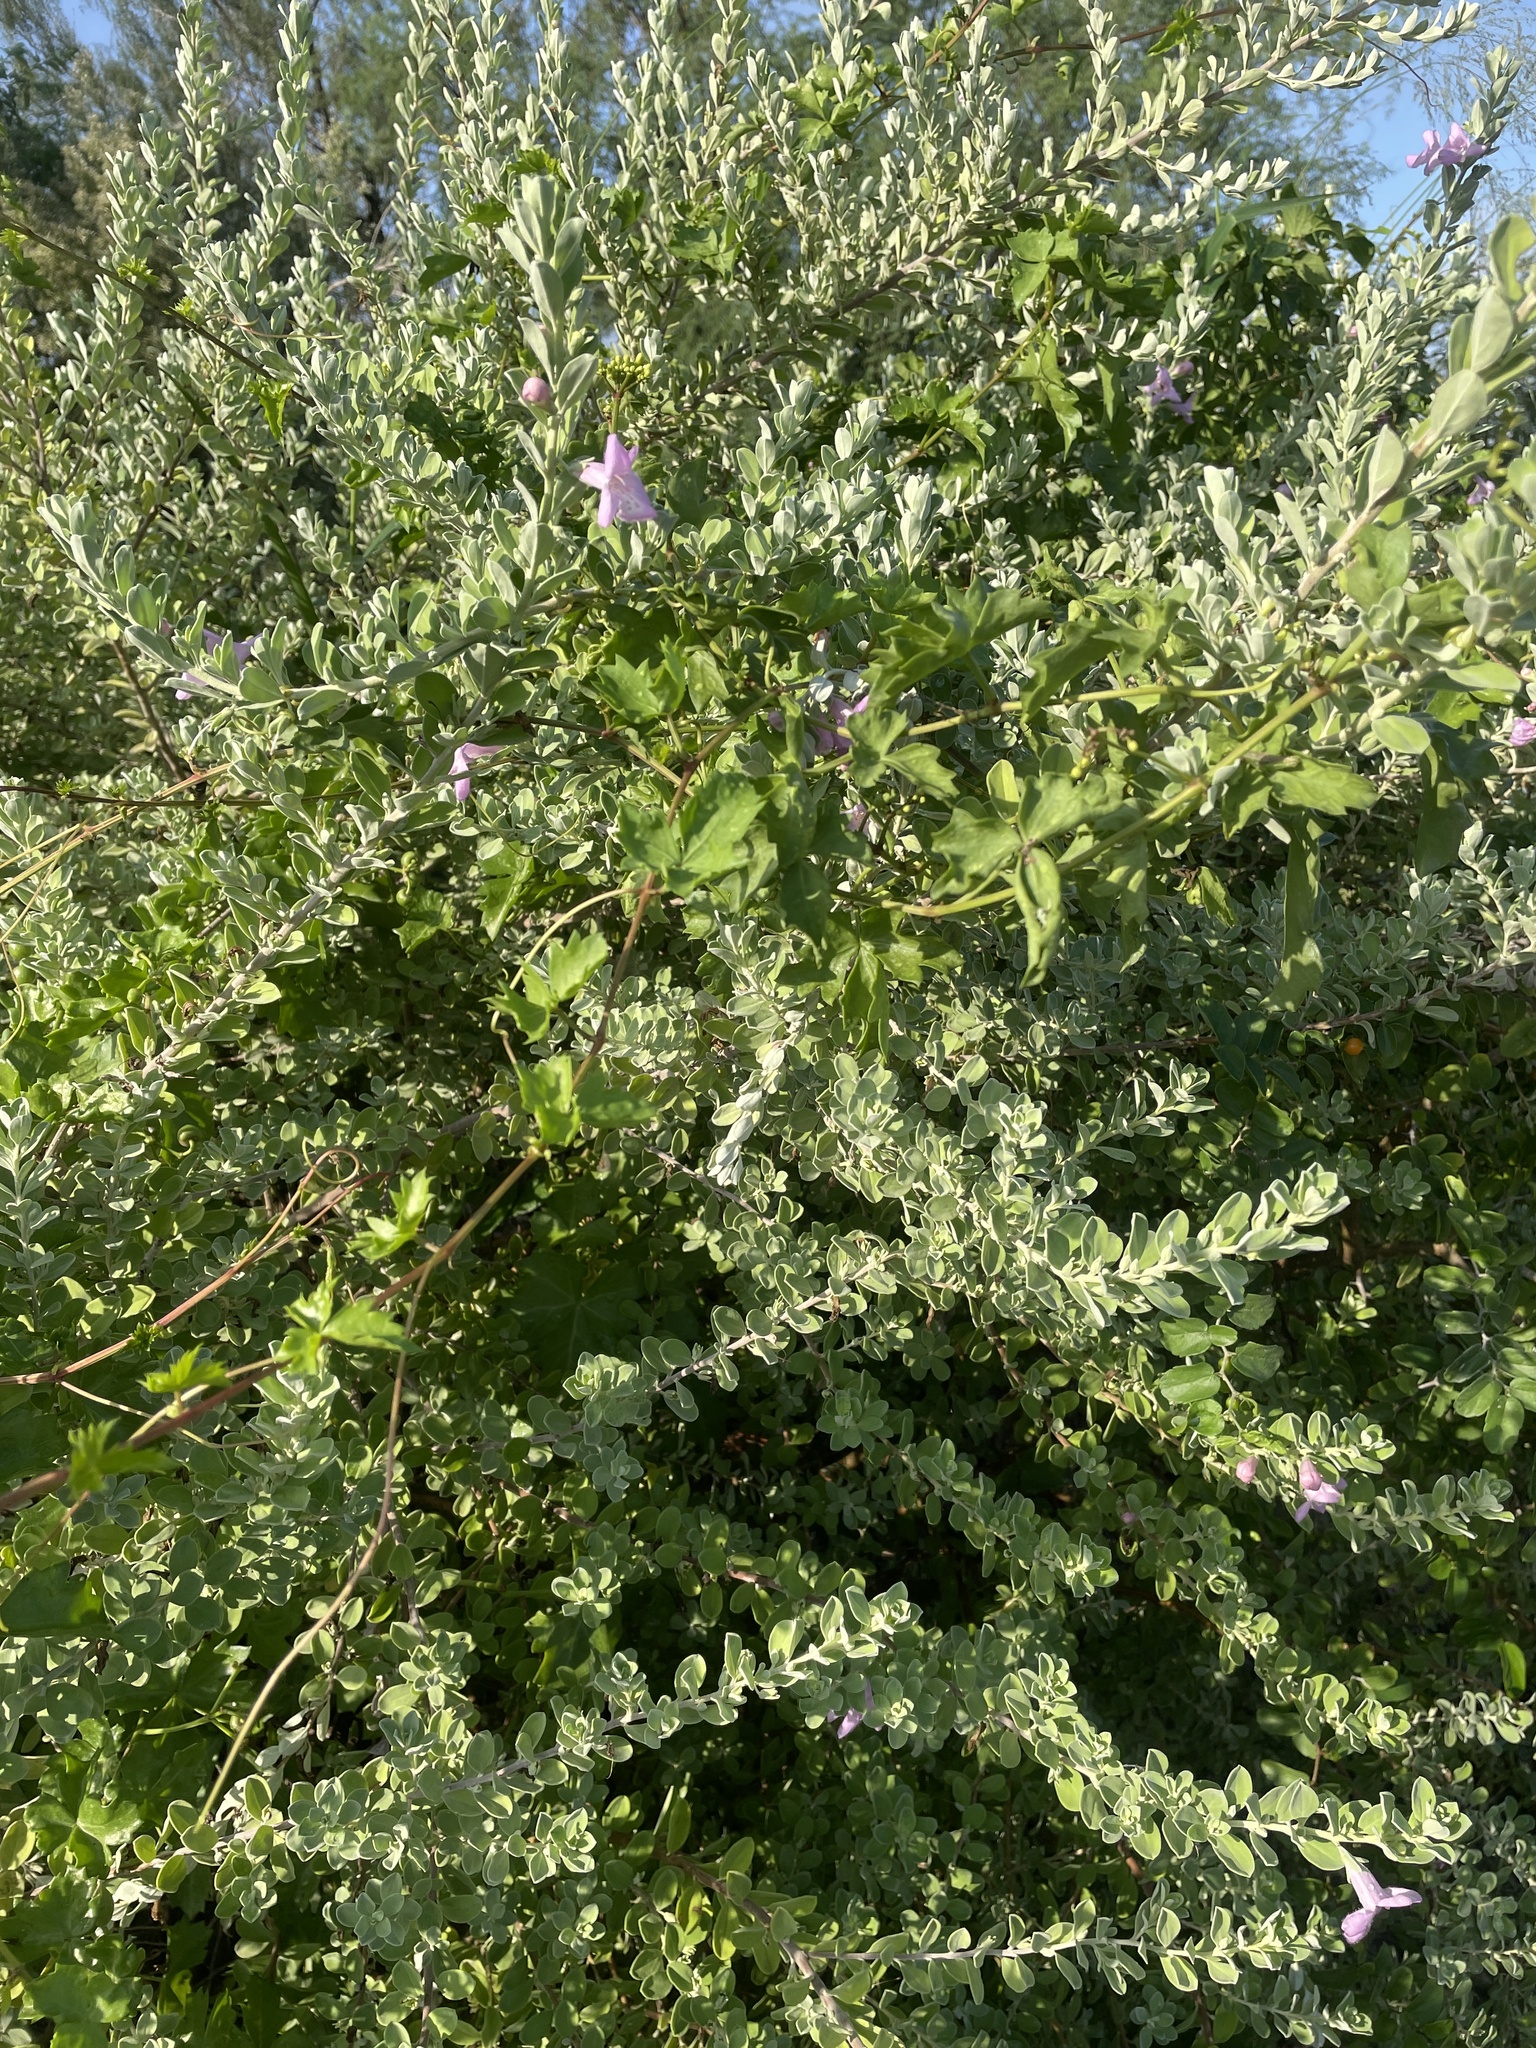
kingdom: Plantae
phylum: Tracheophyta
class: Magnoliopsida
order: Vitales
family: Vitaceae
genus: Cissus
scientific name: Cissus trifoliata
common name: Vine-sorrel
